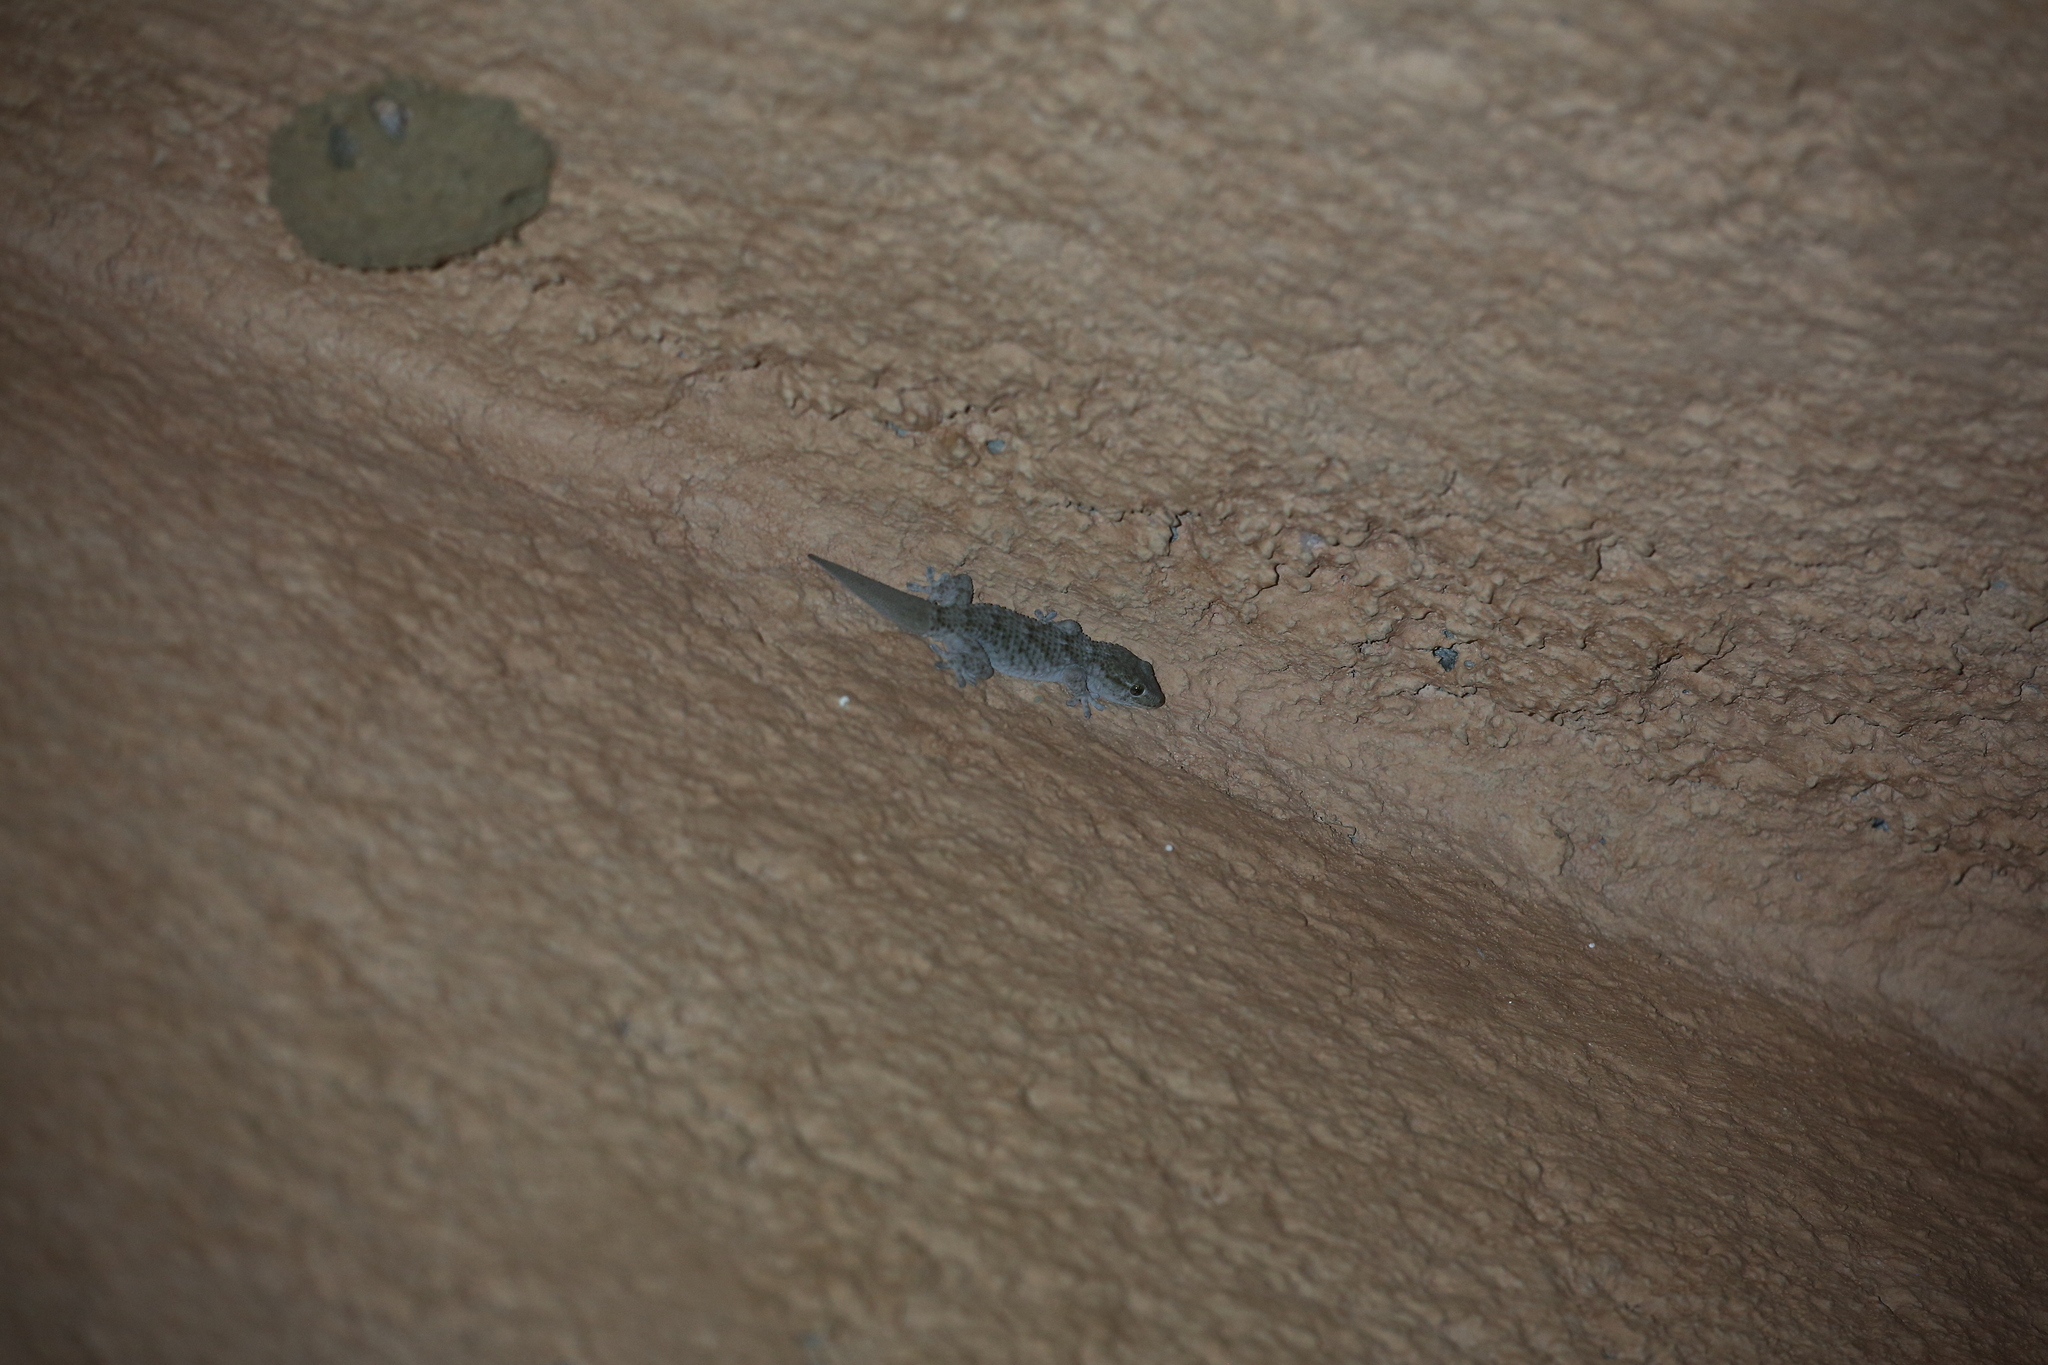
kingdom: Animalia
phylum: Chordata
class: Squamata
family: Phyllodactylidae
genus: Tarentola
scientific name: Tarentola mauritanica
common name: Moorish gecko
